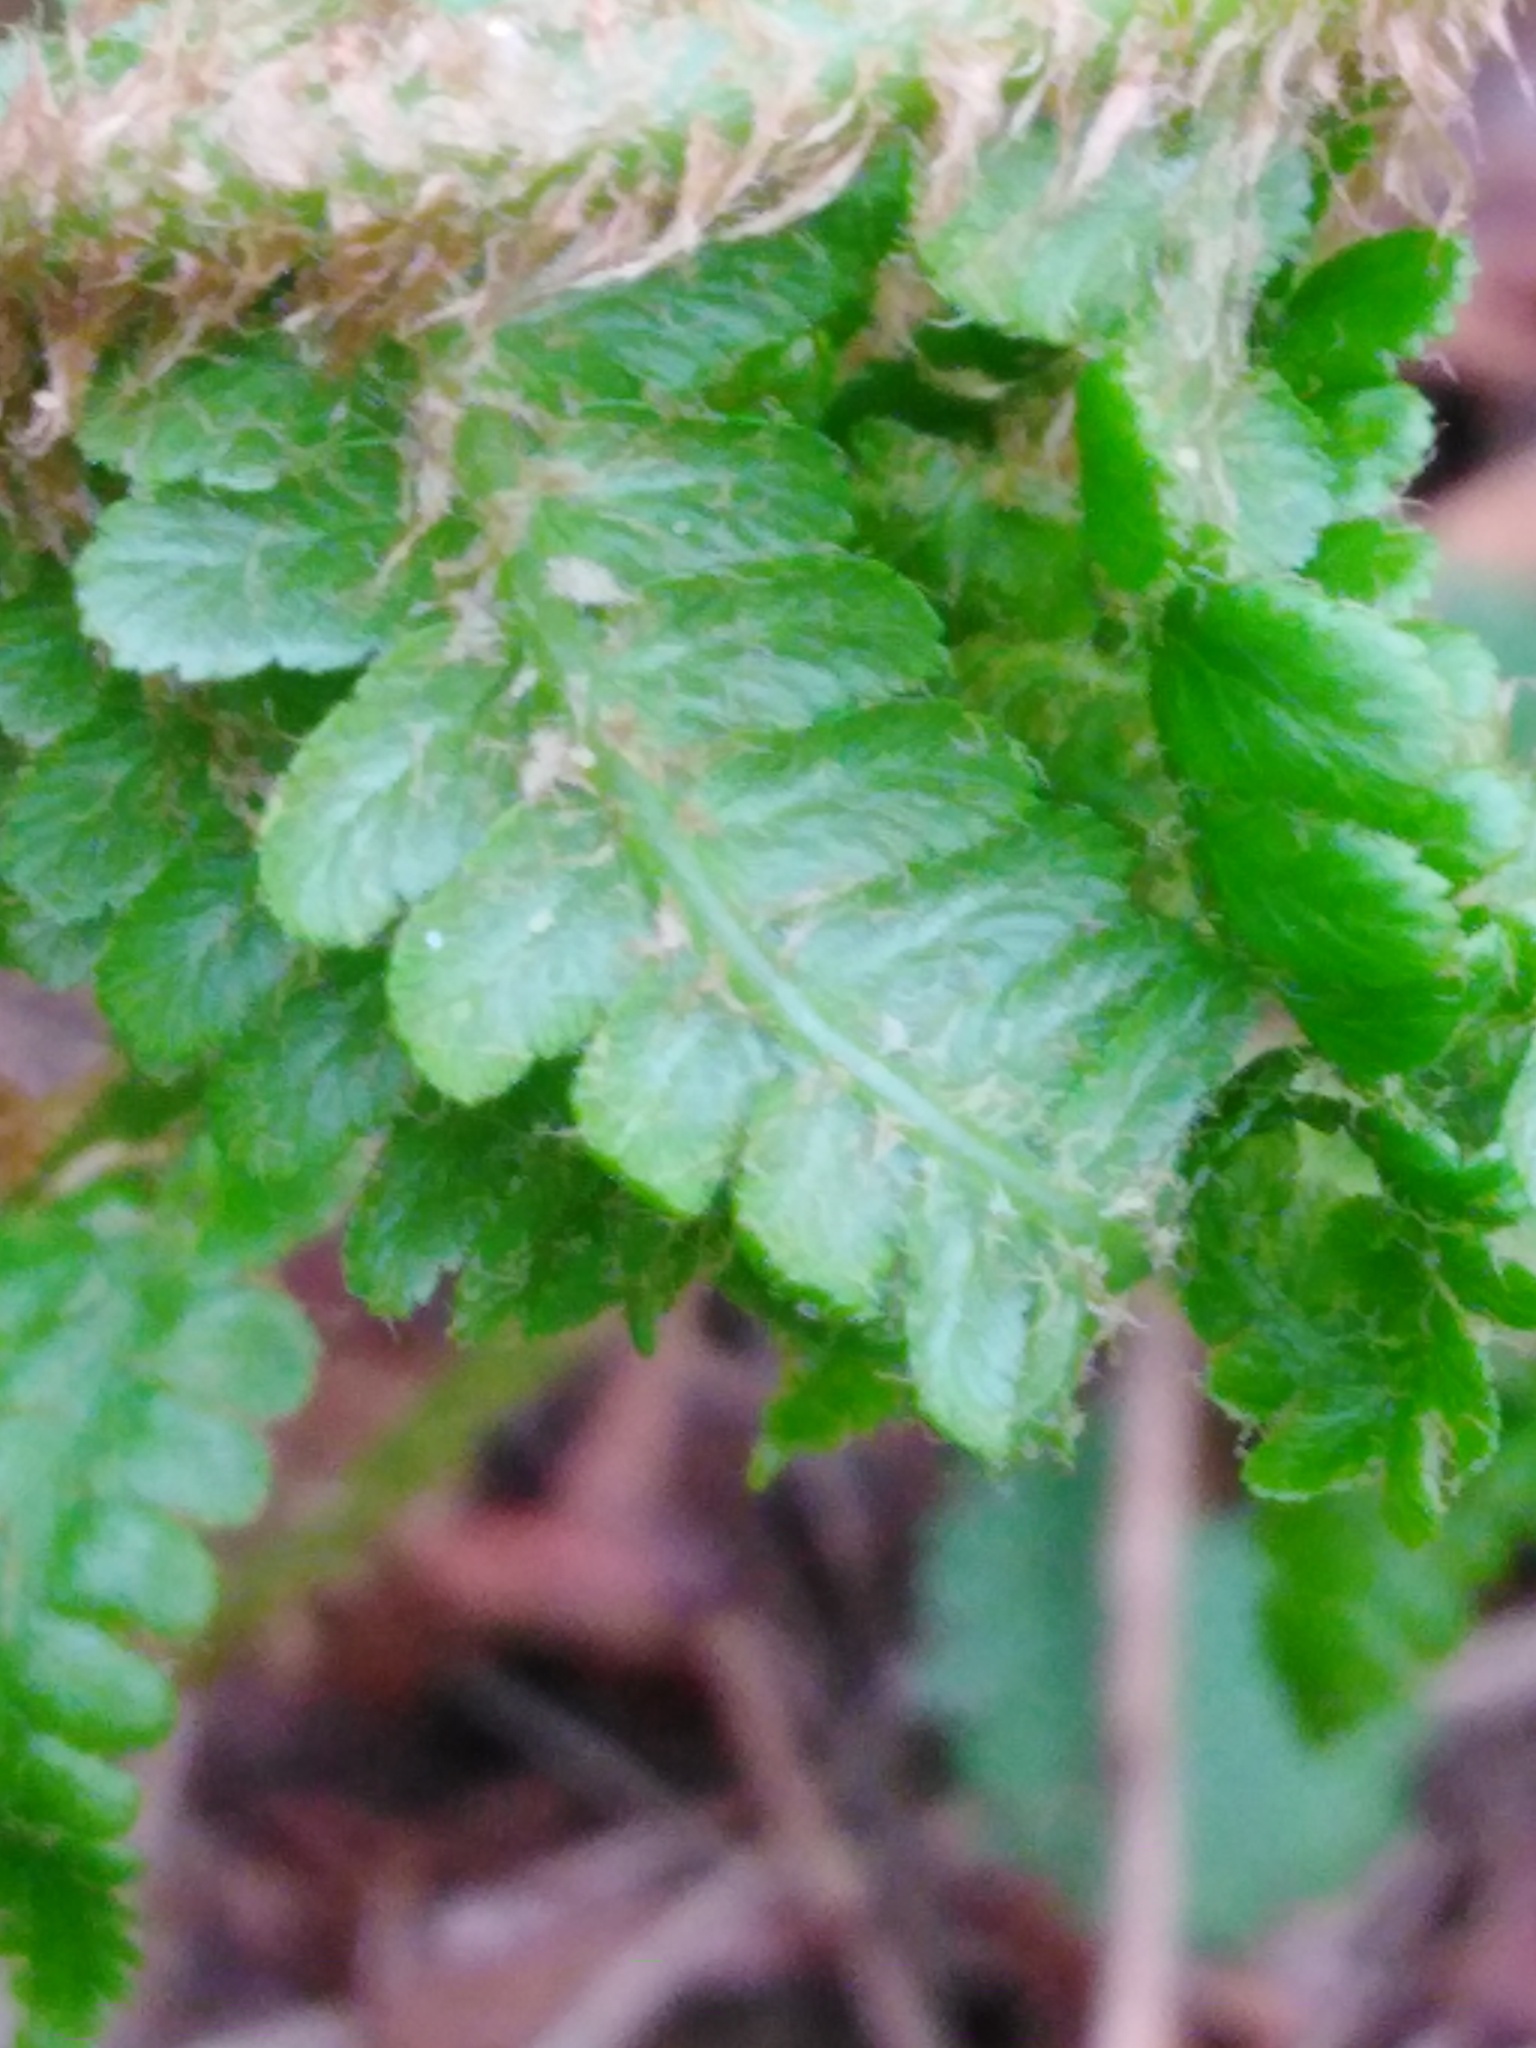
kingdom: Plantae
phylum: Tracheophyta
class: Polypodiopsida
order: Polypodiales
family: Dryopteridaceae
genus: Dryopteris
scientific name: Dryopteris filix-mas
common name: Male fern
